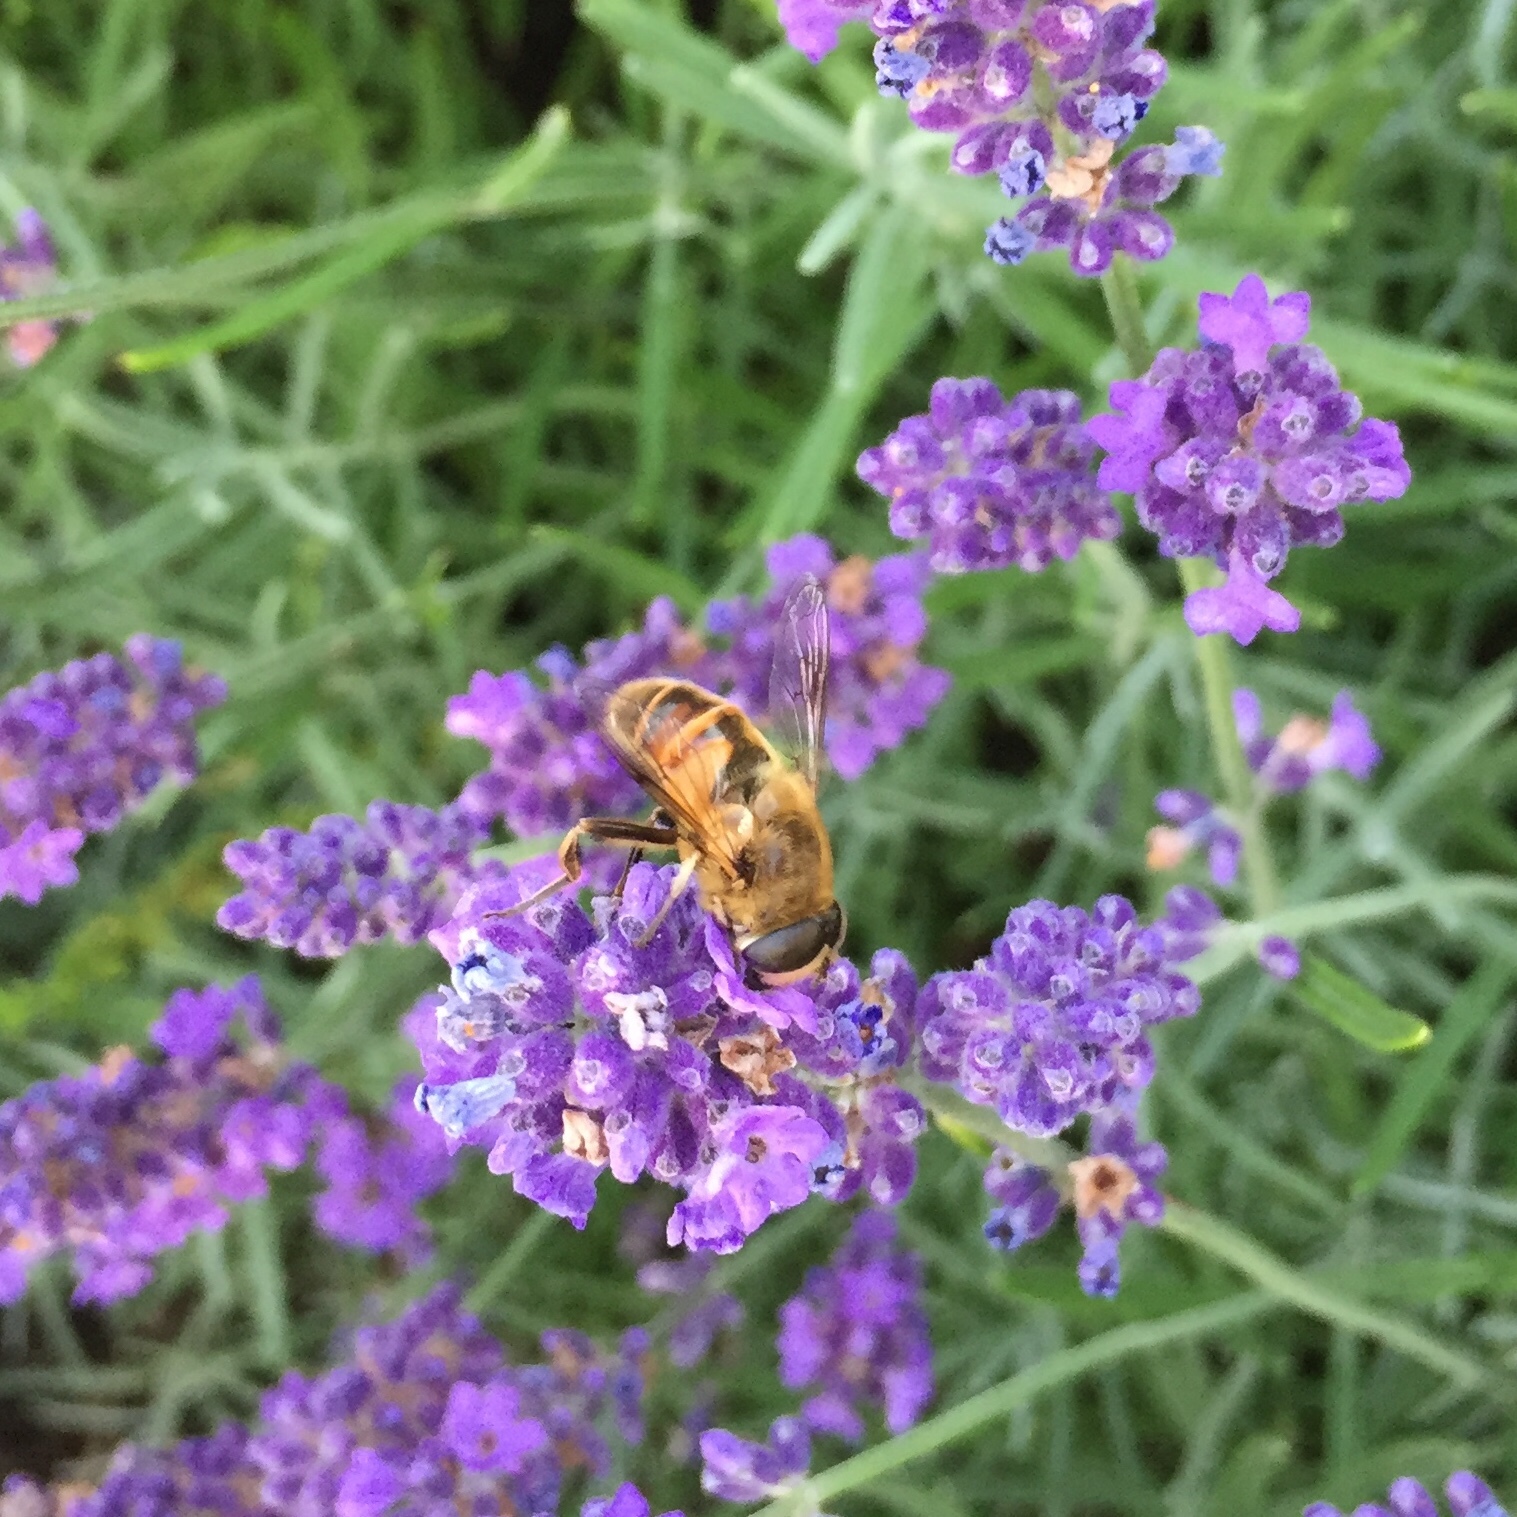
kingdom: Animalia
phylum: Arthropoda
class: Insecta
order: Diptera
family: Syrphidae
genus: Eristalis
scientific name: Eristalis tenax
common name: Drone fly
